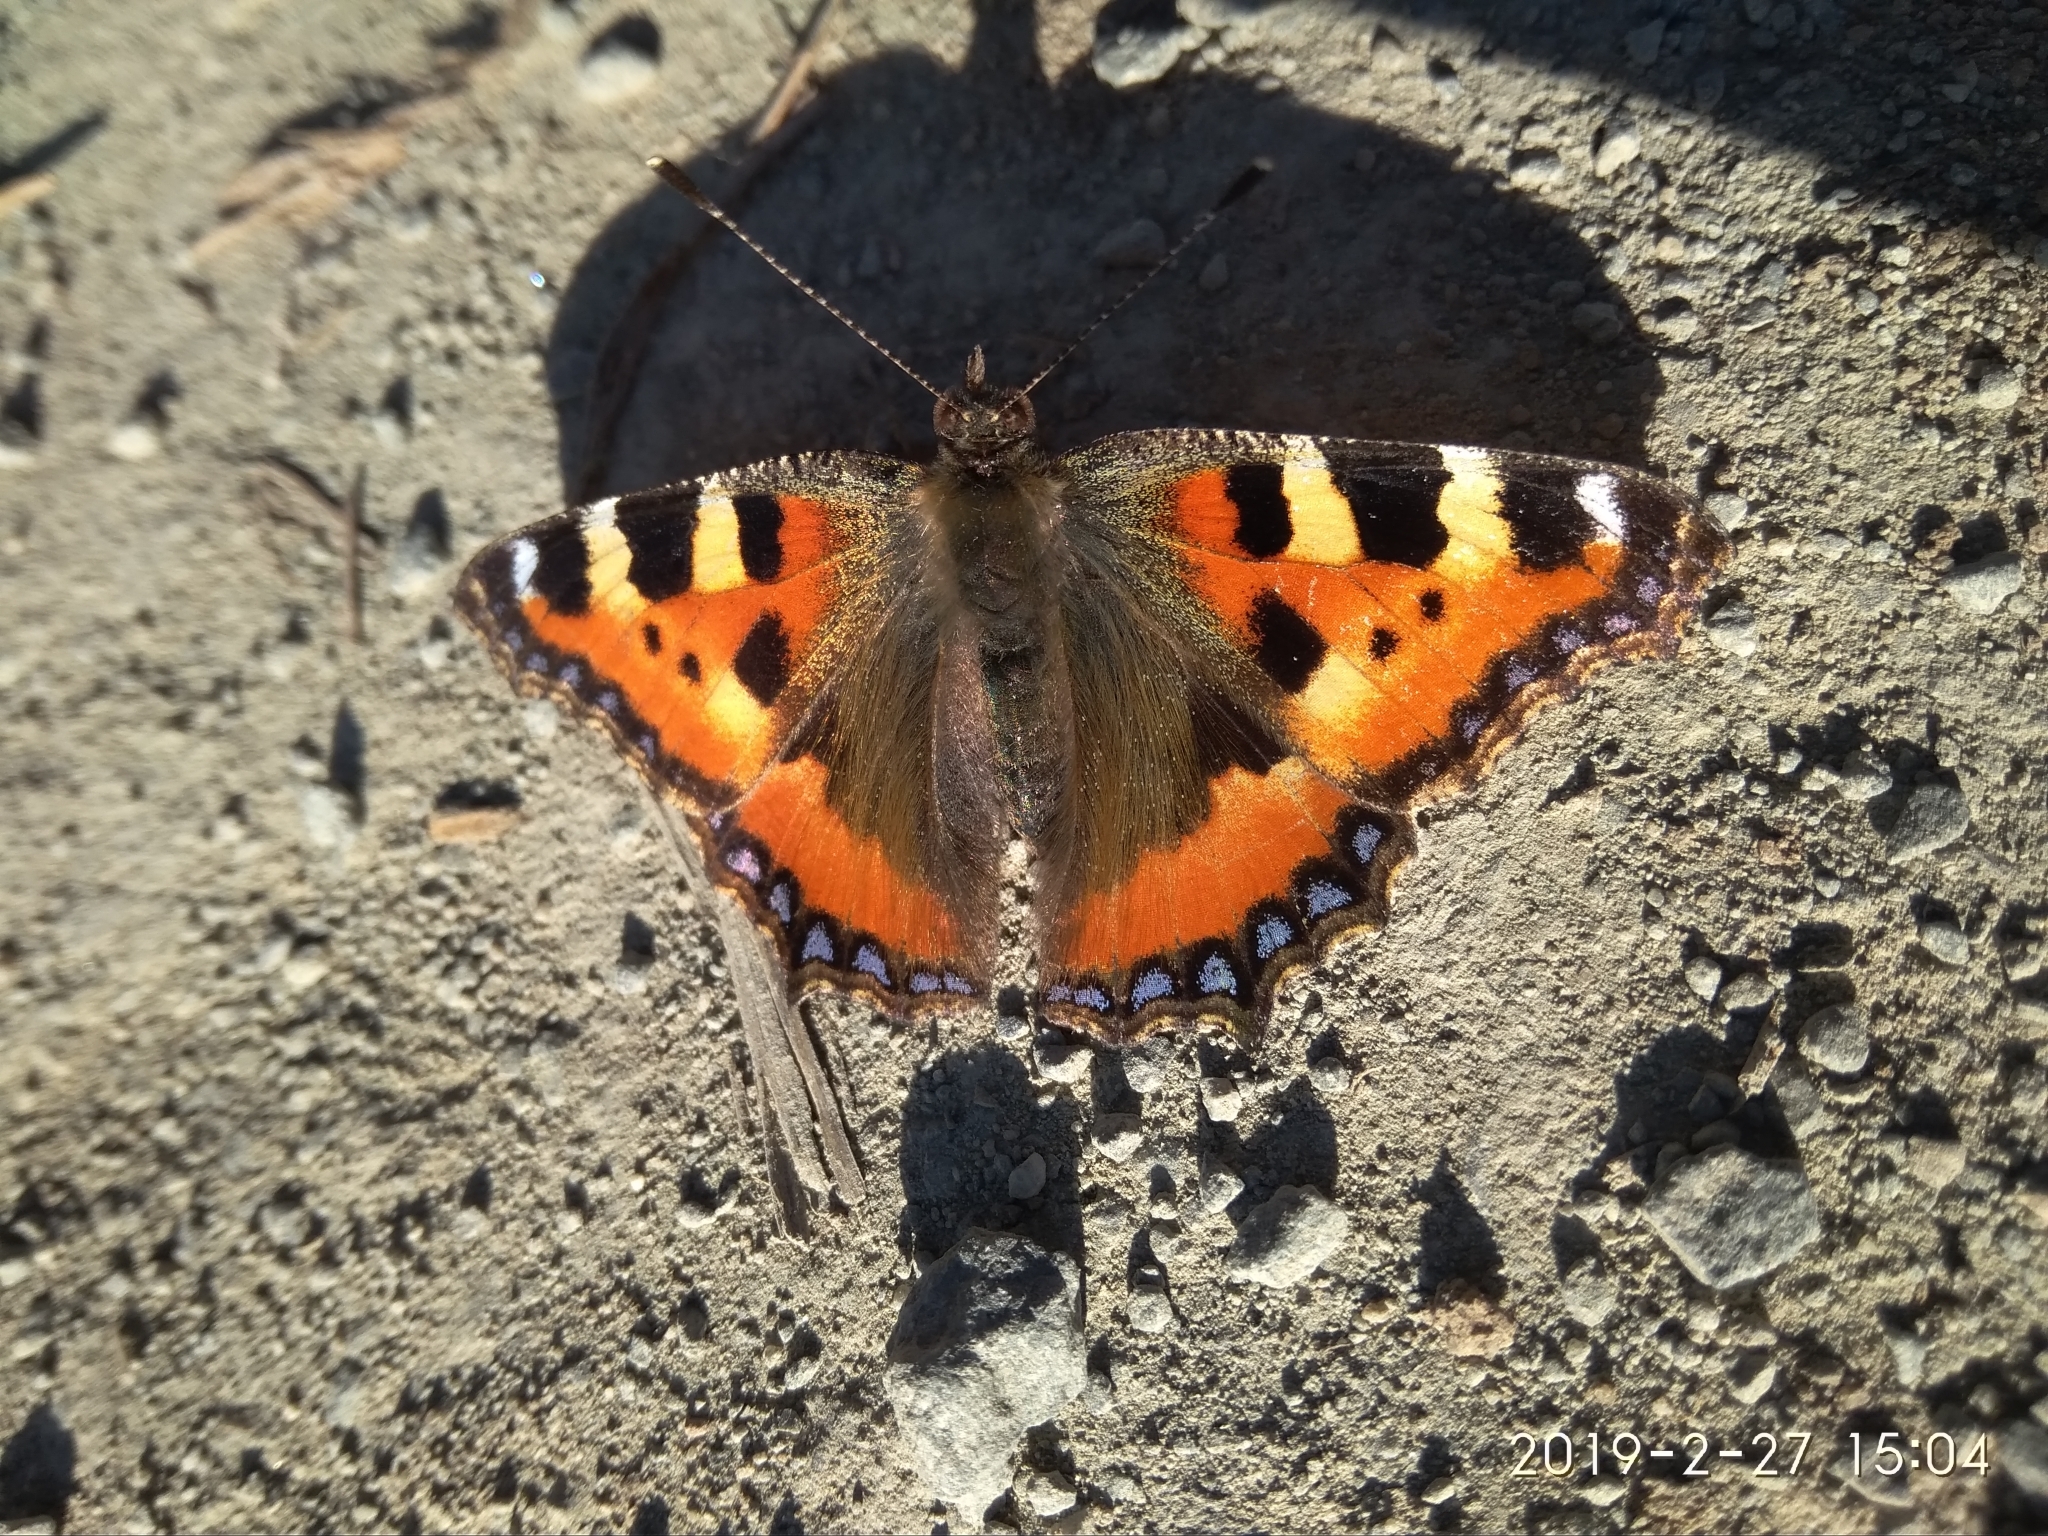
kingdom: Animalia
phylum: Arthropoda
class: Insecta
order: Lepidoptera
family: Nymphalidae
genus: Aglais
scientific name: Aglais urticae
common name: Small tortoiseshell
